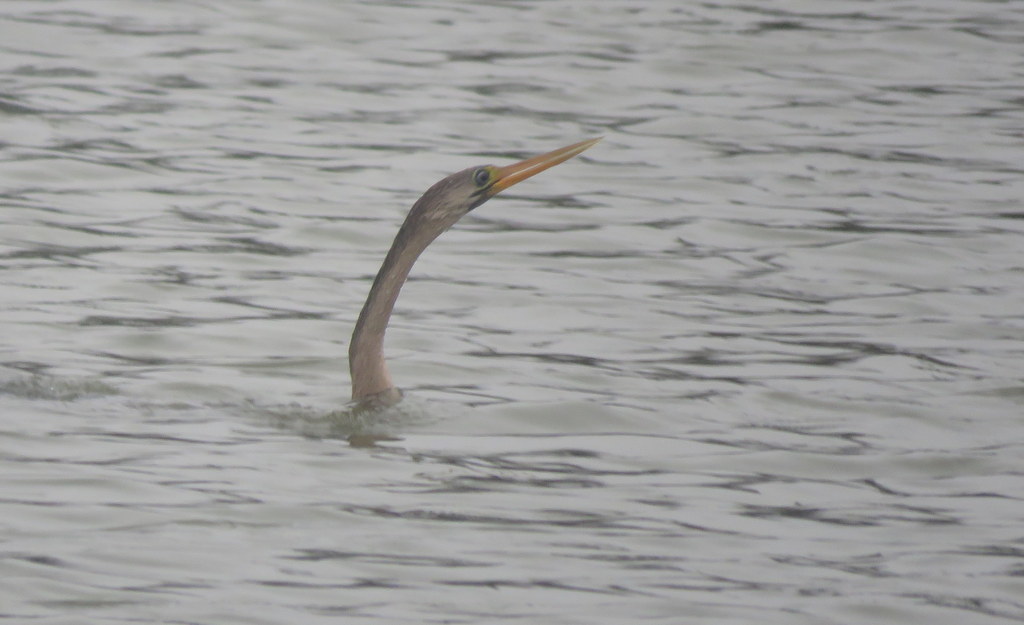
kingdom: Animalia
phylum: Chordata
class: Aves
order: Suliformes
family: Anhingidae
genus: Anhinga
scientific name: Anhinga anhinga
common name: Anhinga
